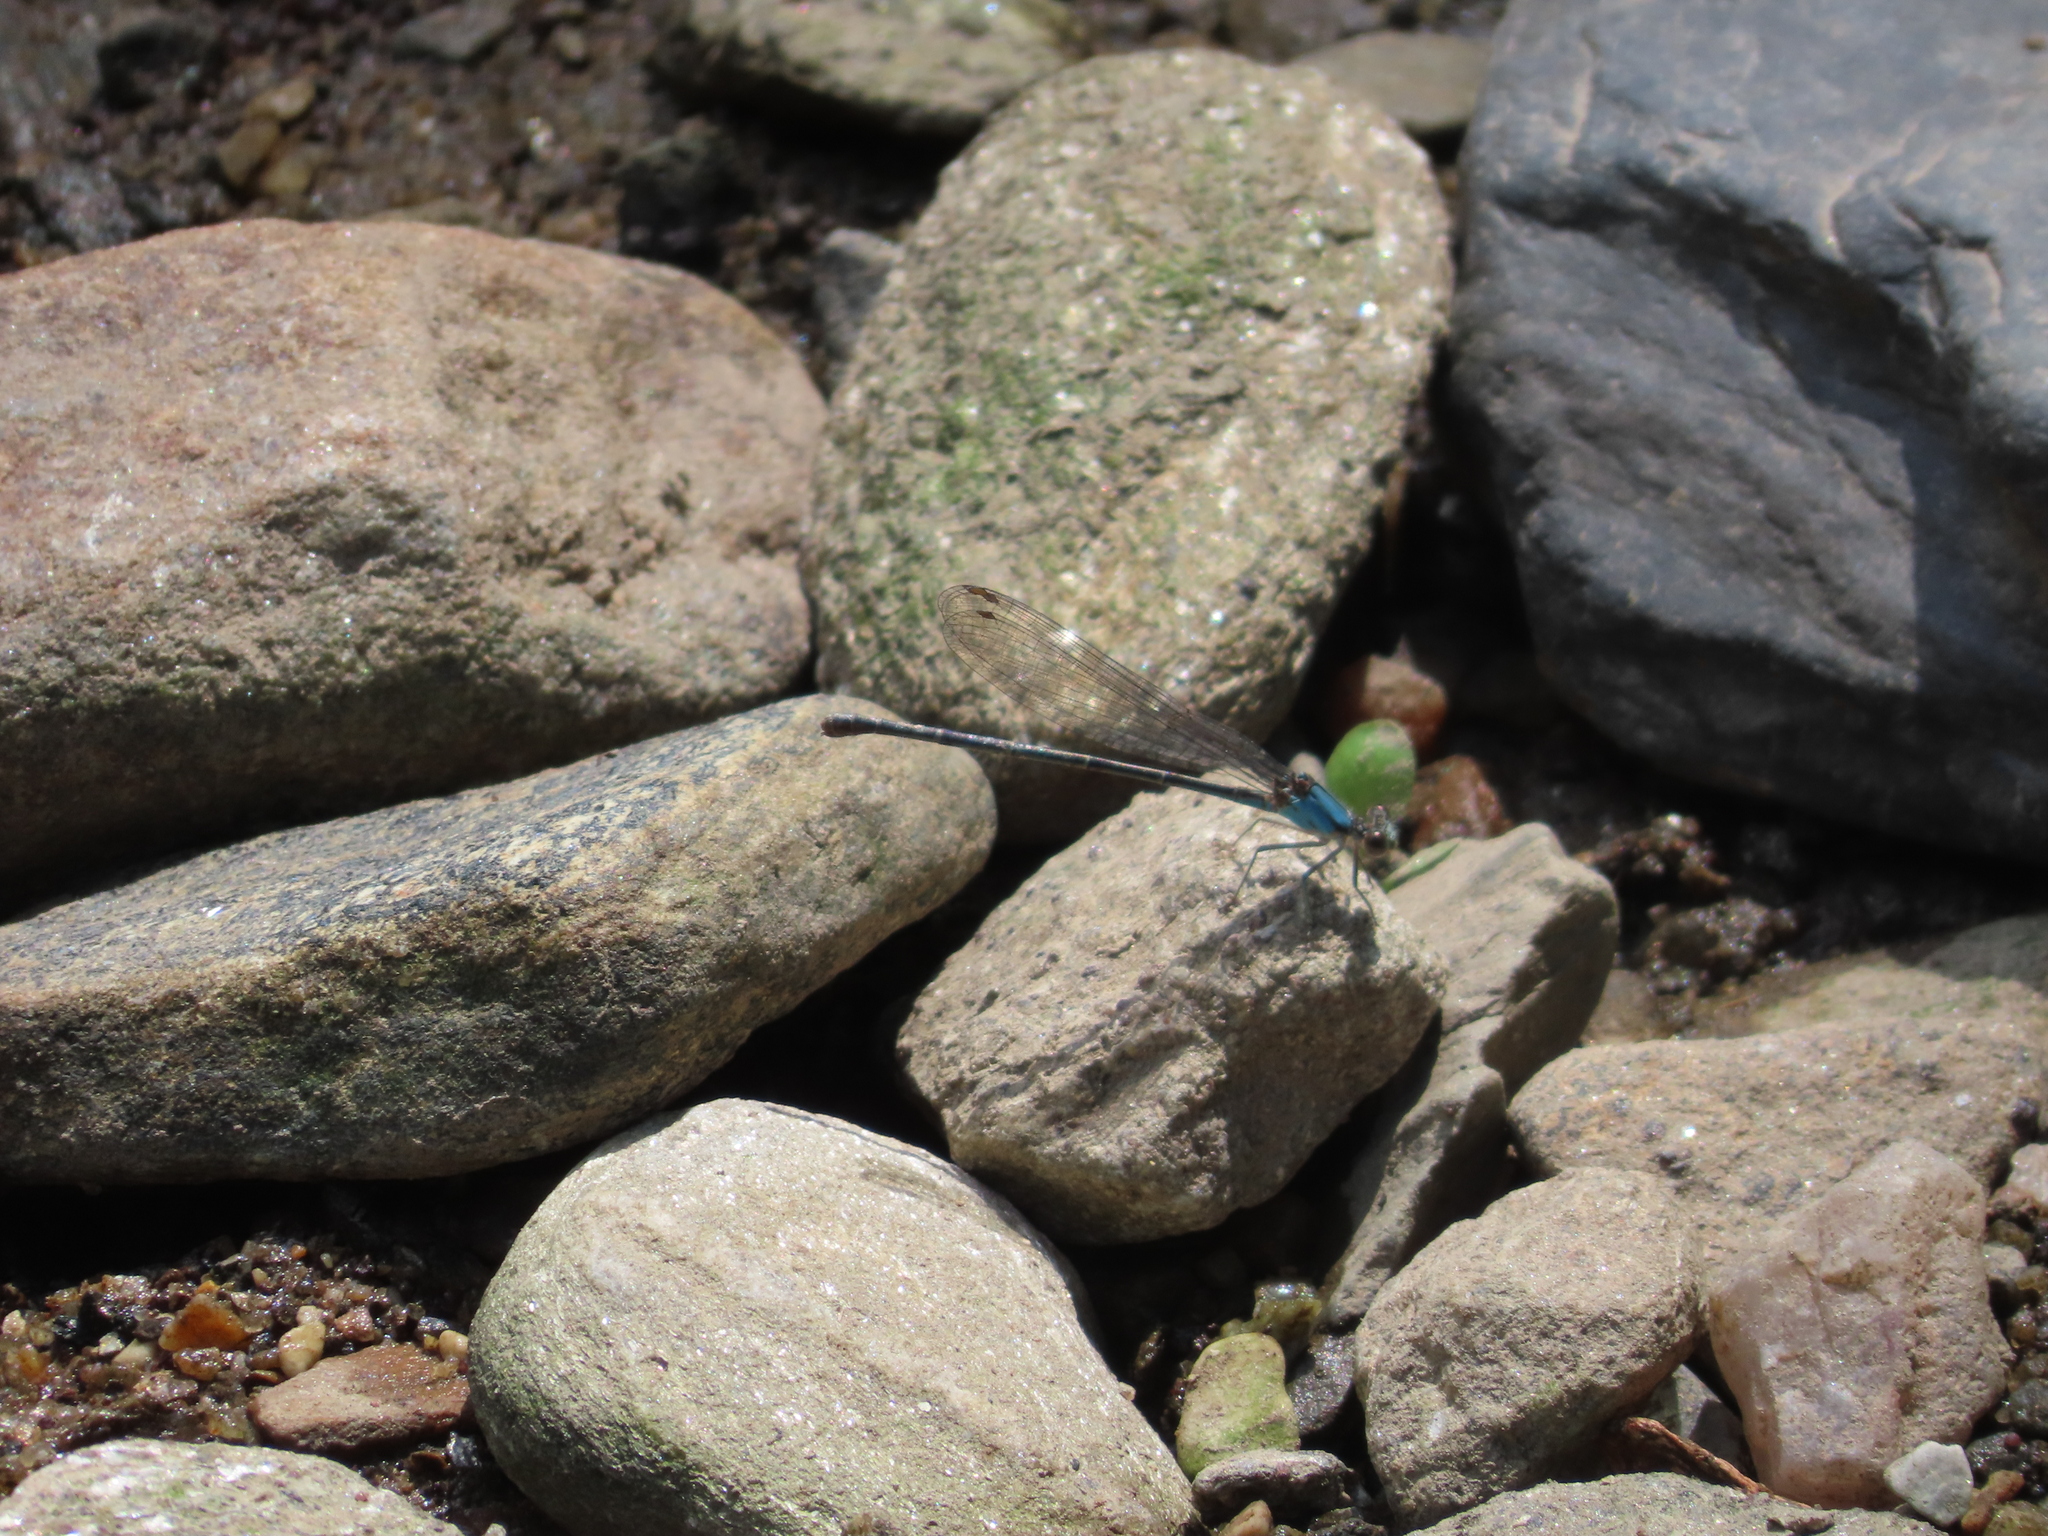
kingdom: Animalia
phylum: Arthropoda
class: Insecta
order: Odonata
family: Coenagrionidae
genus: Argia
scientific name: Argia apicalis
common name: Blue-fronted dancer
